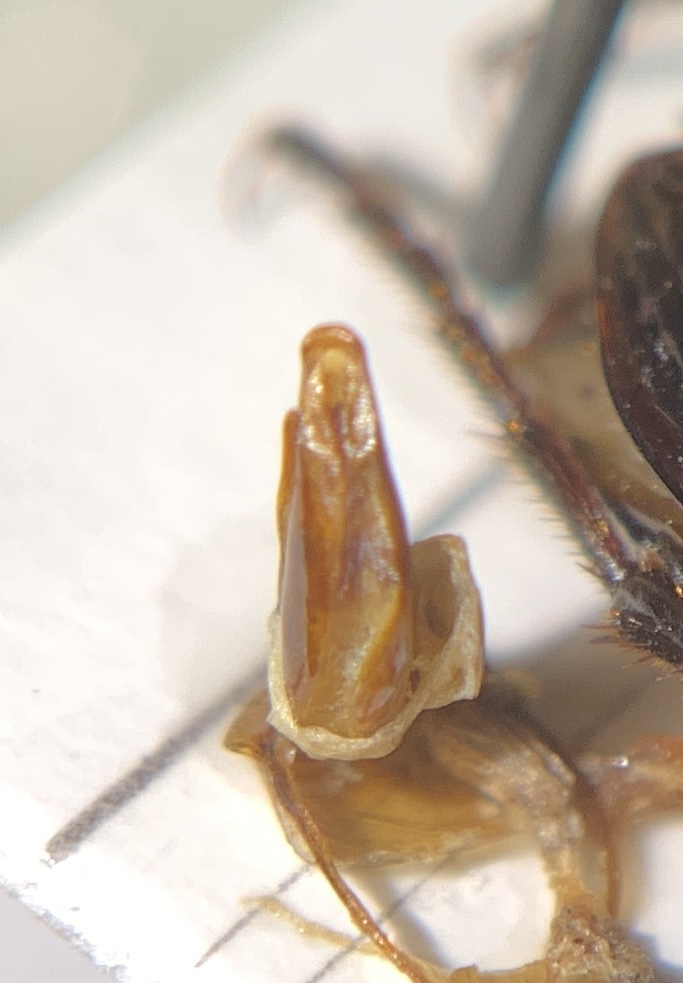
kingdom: Animalia
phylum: Arthropoda
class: Insecta
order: Coleoptera
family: Carabidae
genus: Laemostenus
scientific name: Laemostenus latialis
